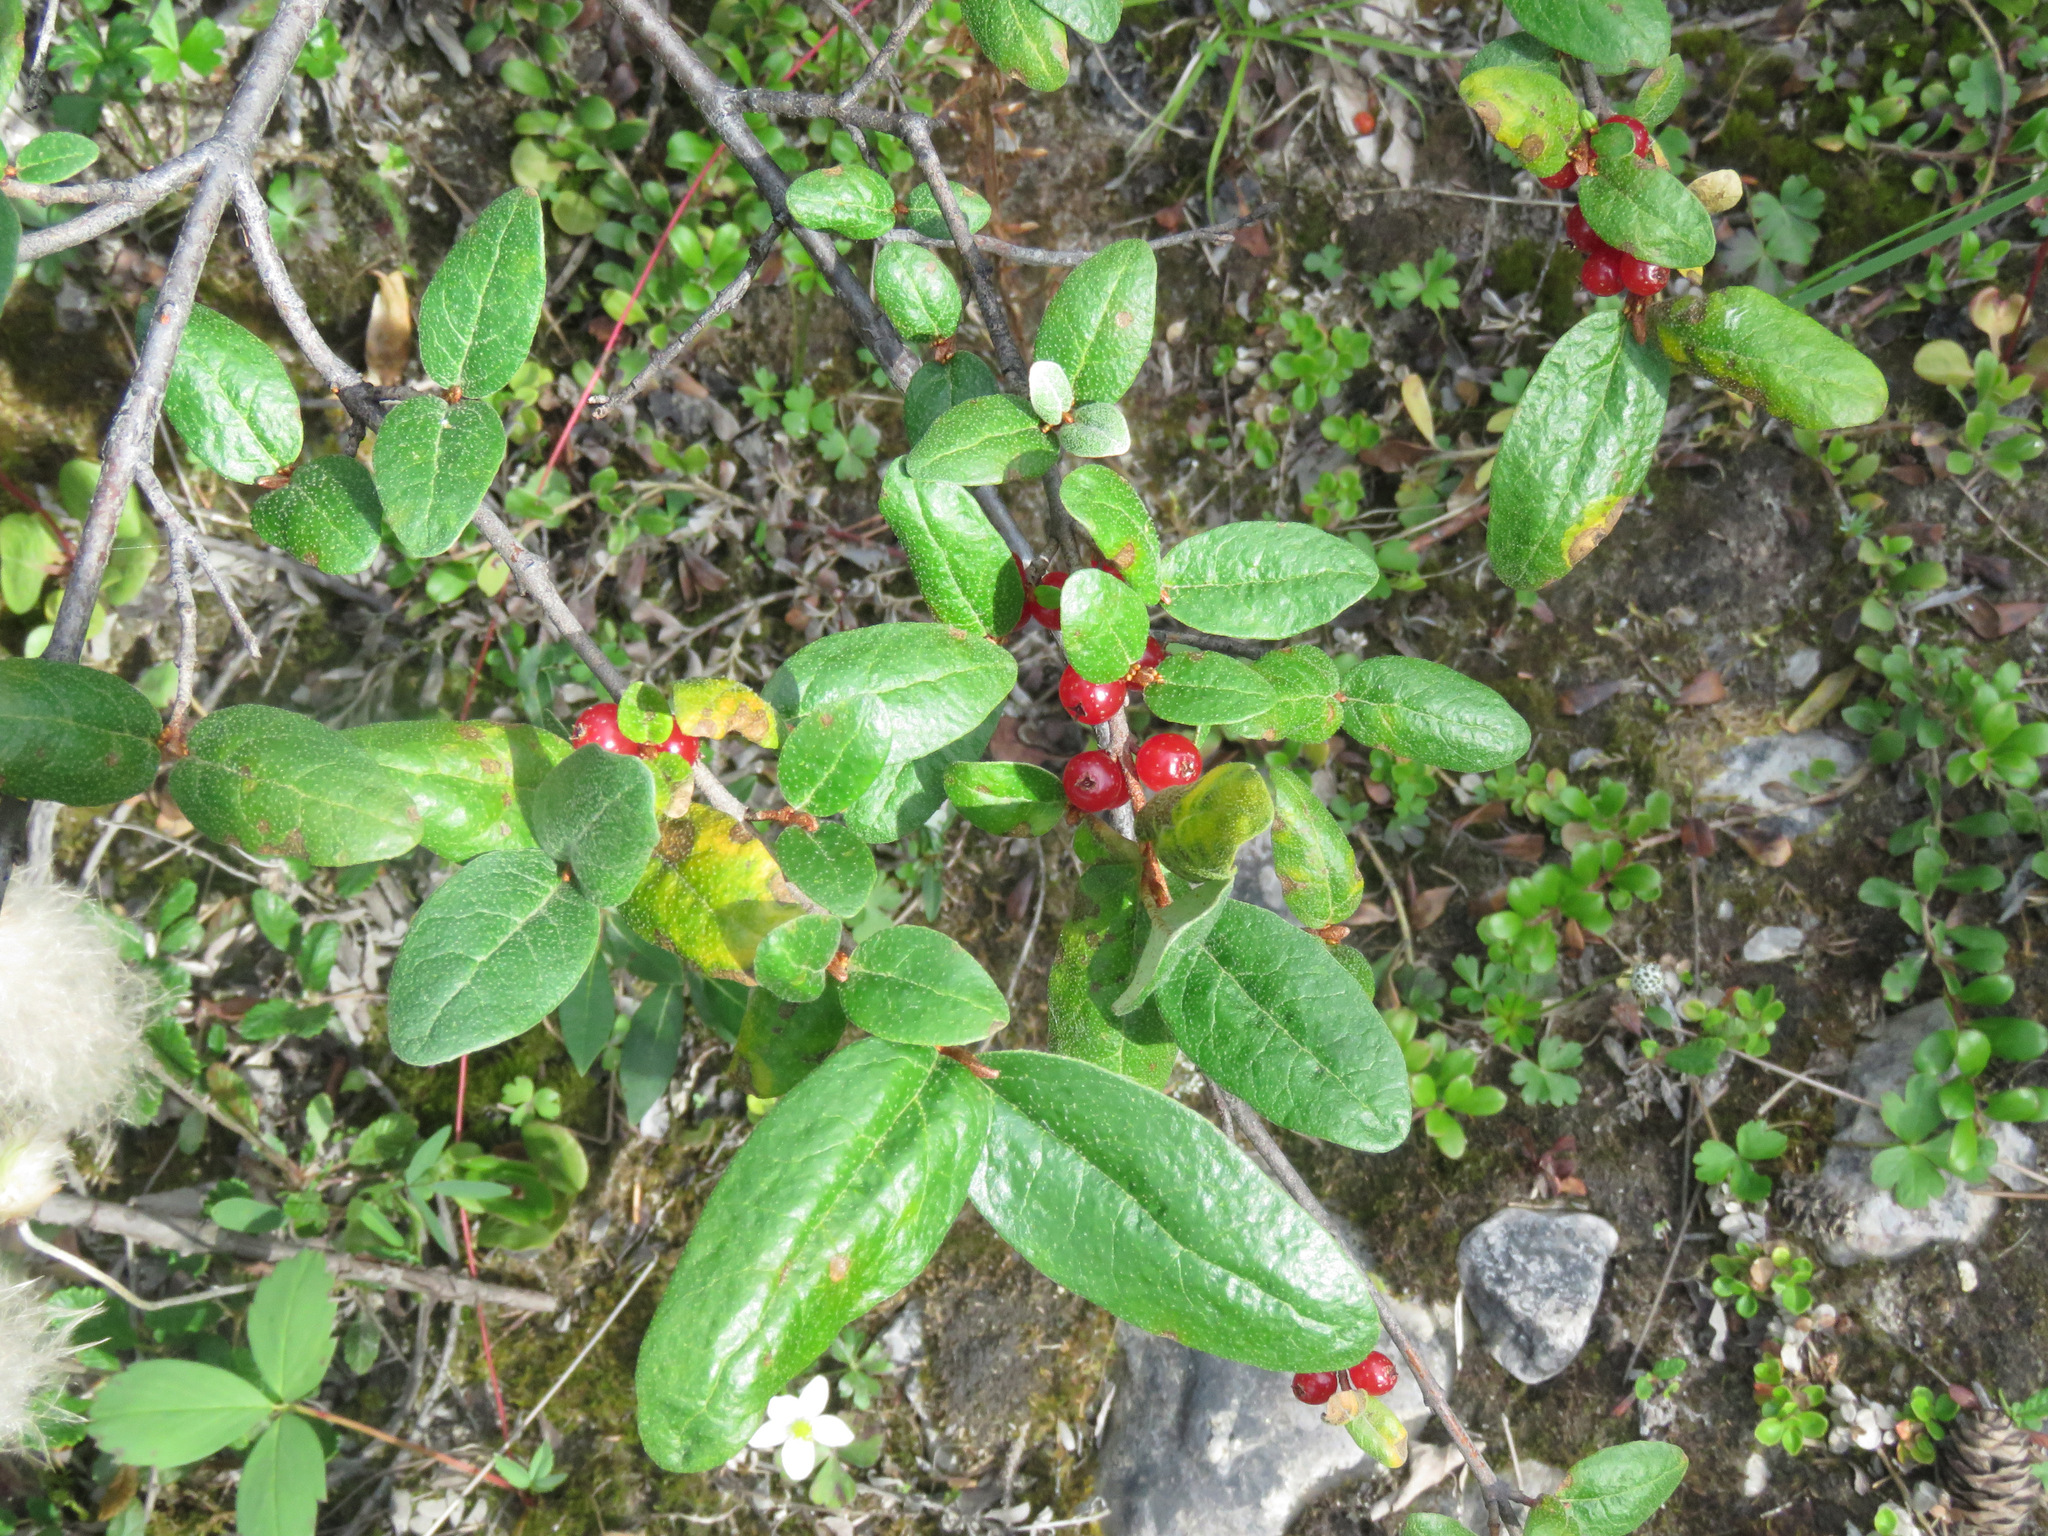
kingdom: Plantae
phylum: Tracheophyta
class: Magnoliopsida
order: Rosales
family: Elaeagnaceae
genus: Shepherdia
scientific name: Shepherdia canadensis
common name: Soapberry
